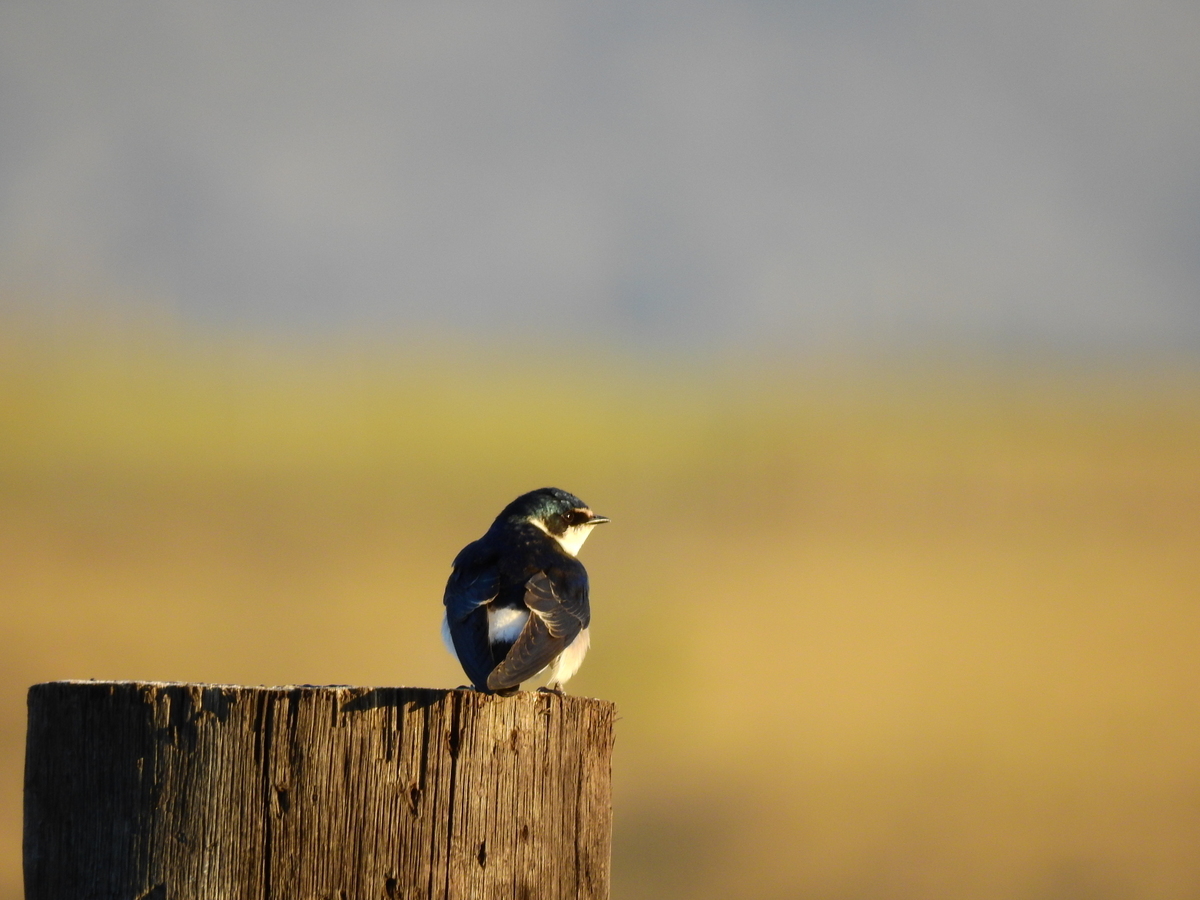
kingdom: Animalia
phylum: Chordata
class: Aves
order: Passeriformes
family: Hirundinidae
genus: Tachycineta
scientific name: Tachycineta leucorrhoa
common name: White-rumped swallow
